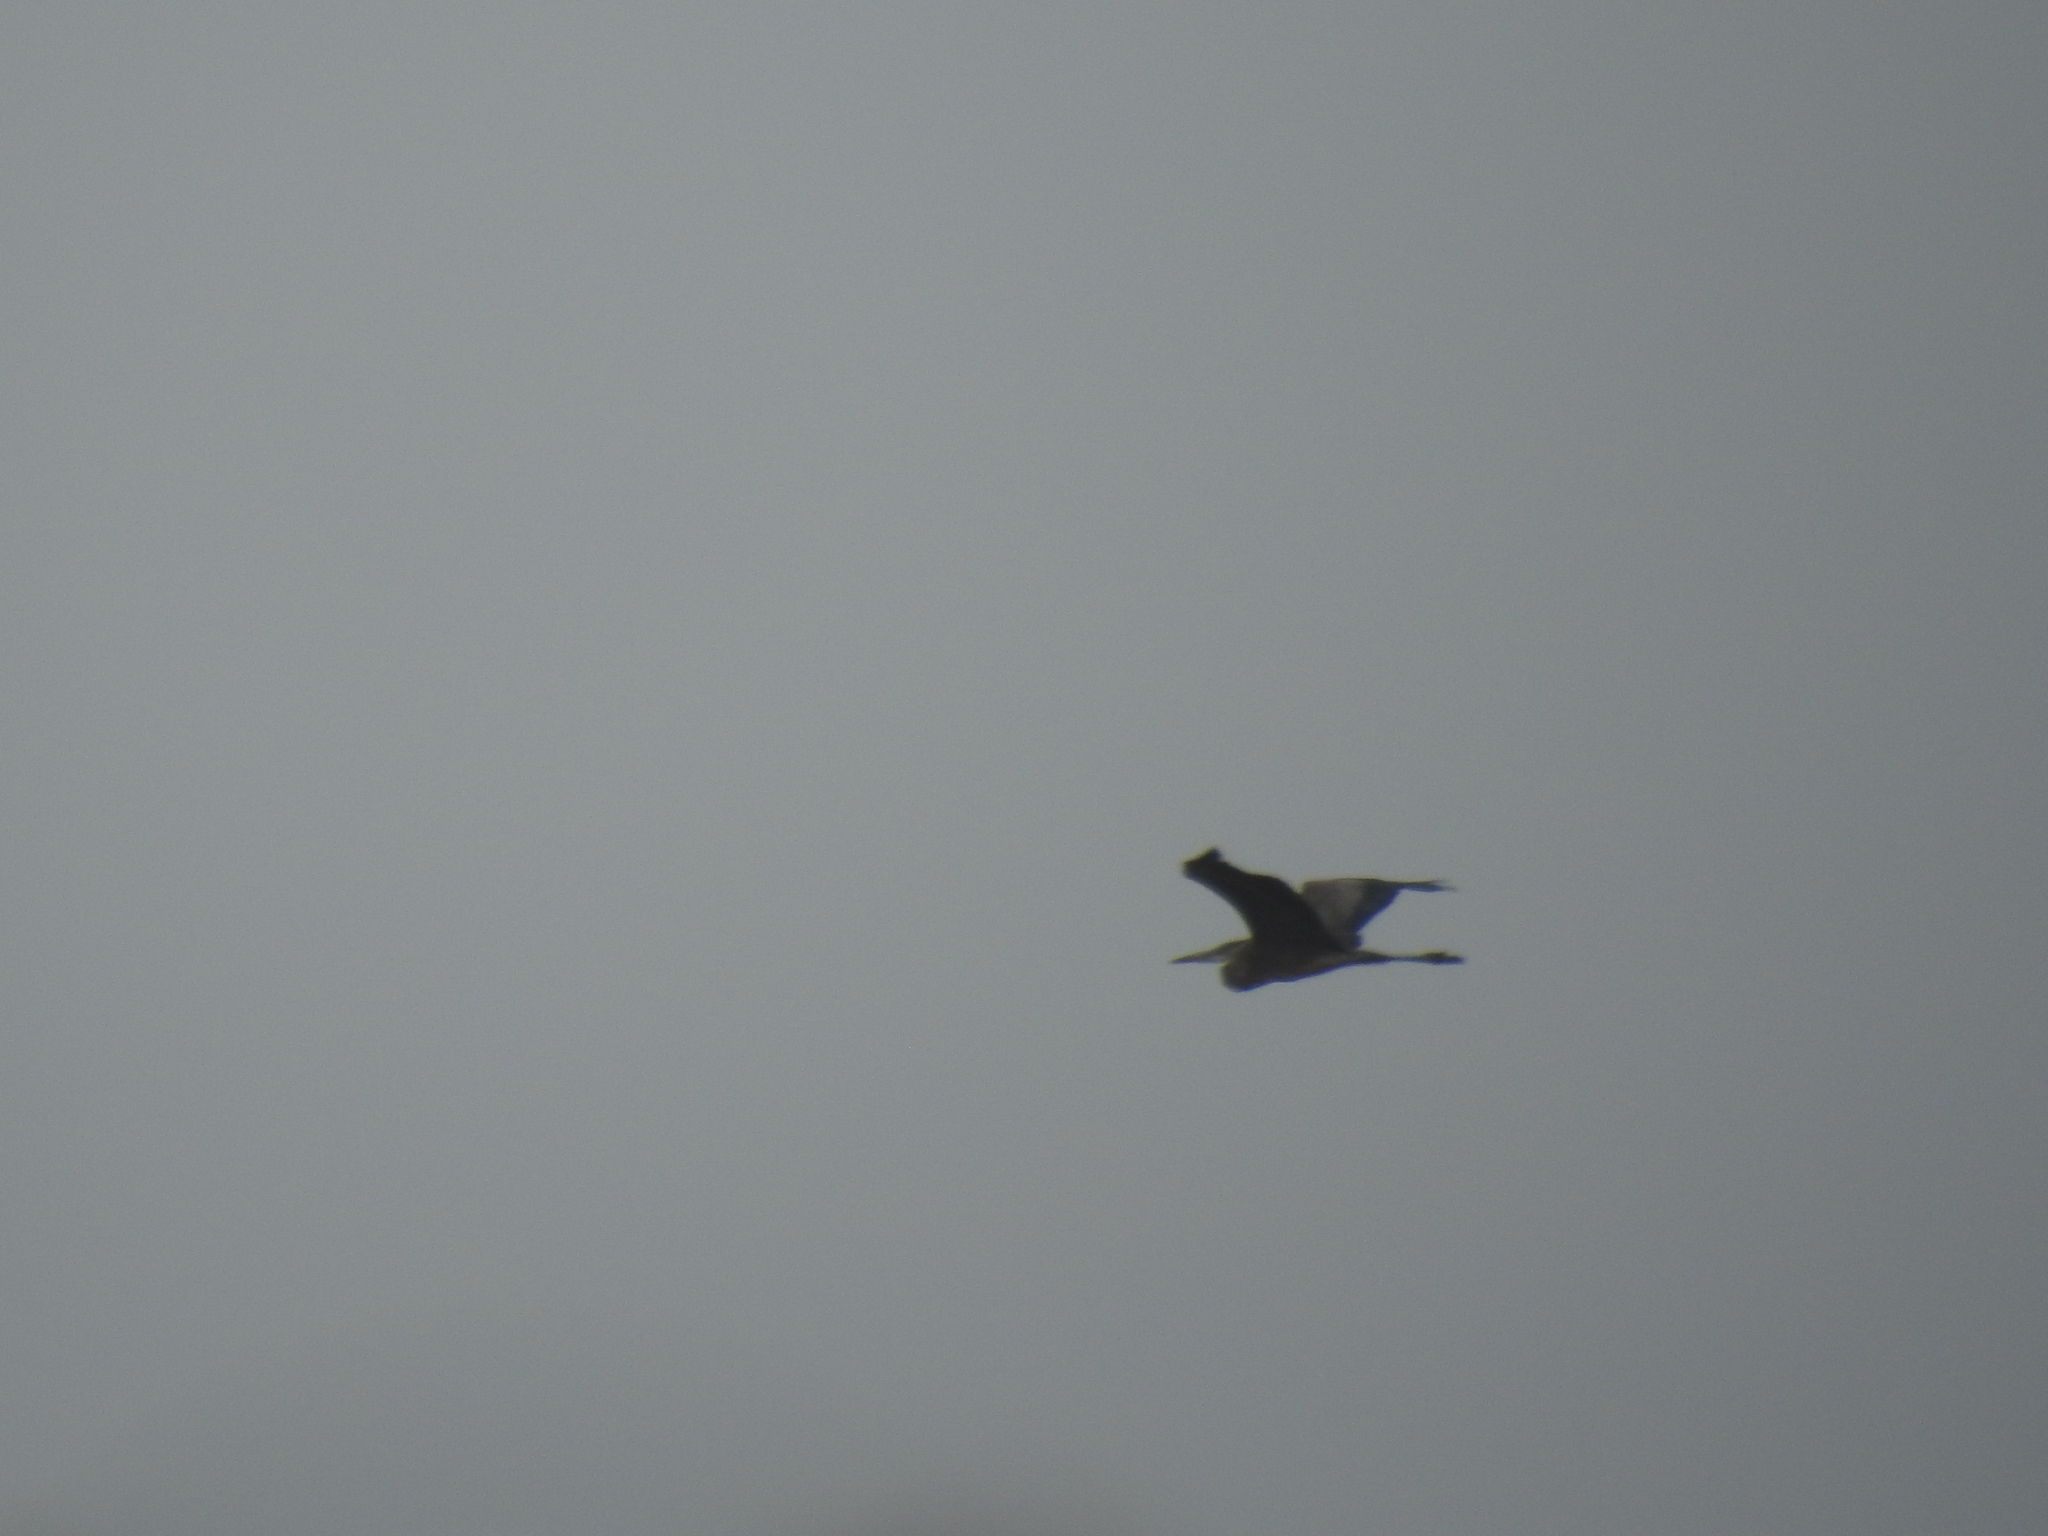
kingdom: Animalia
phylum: Chordata
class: Aves
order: Pelecaniformes
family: Ardeidae
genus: Ardea
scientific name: Ardea herodias
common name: Great blue heron
